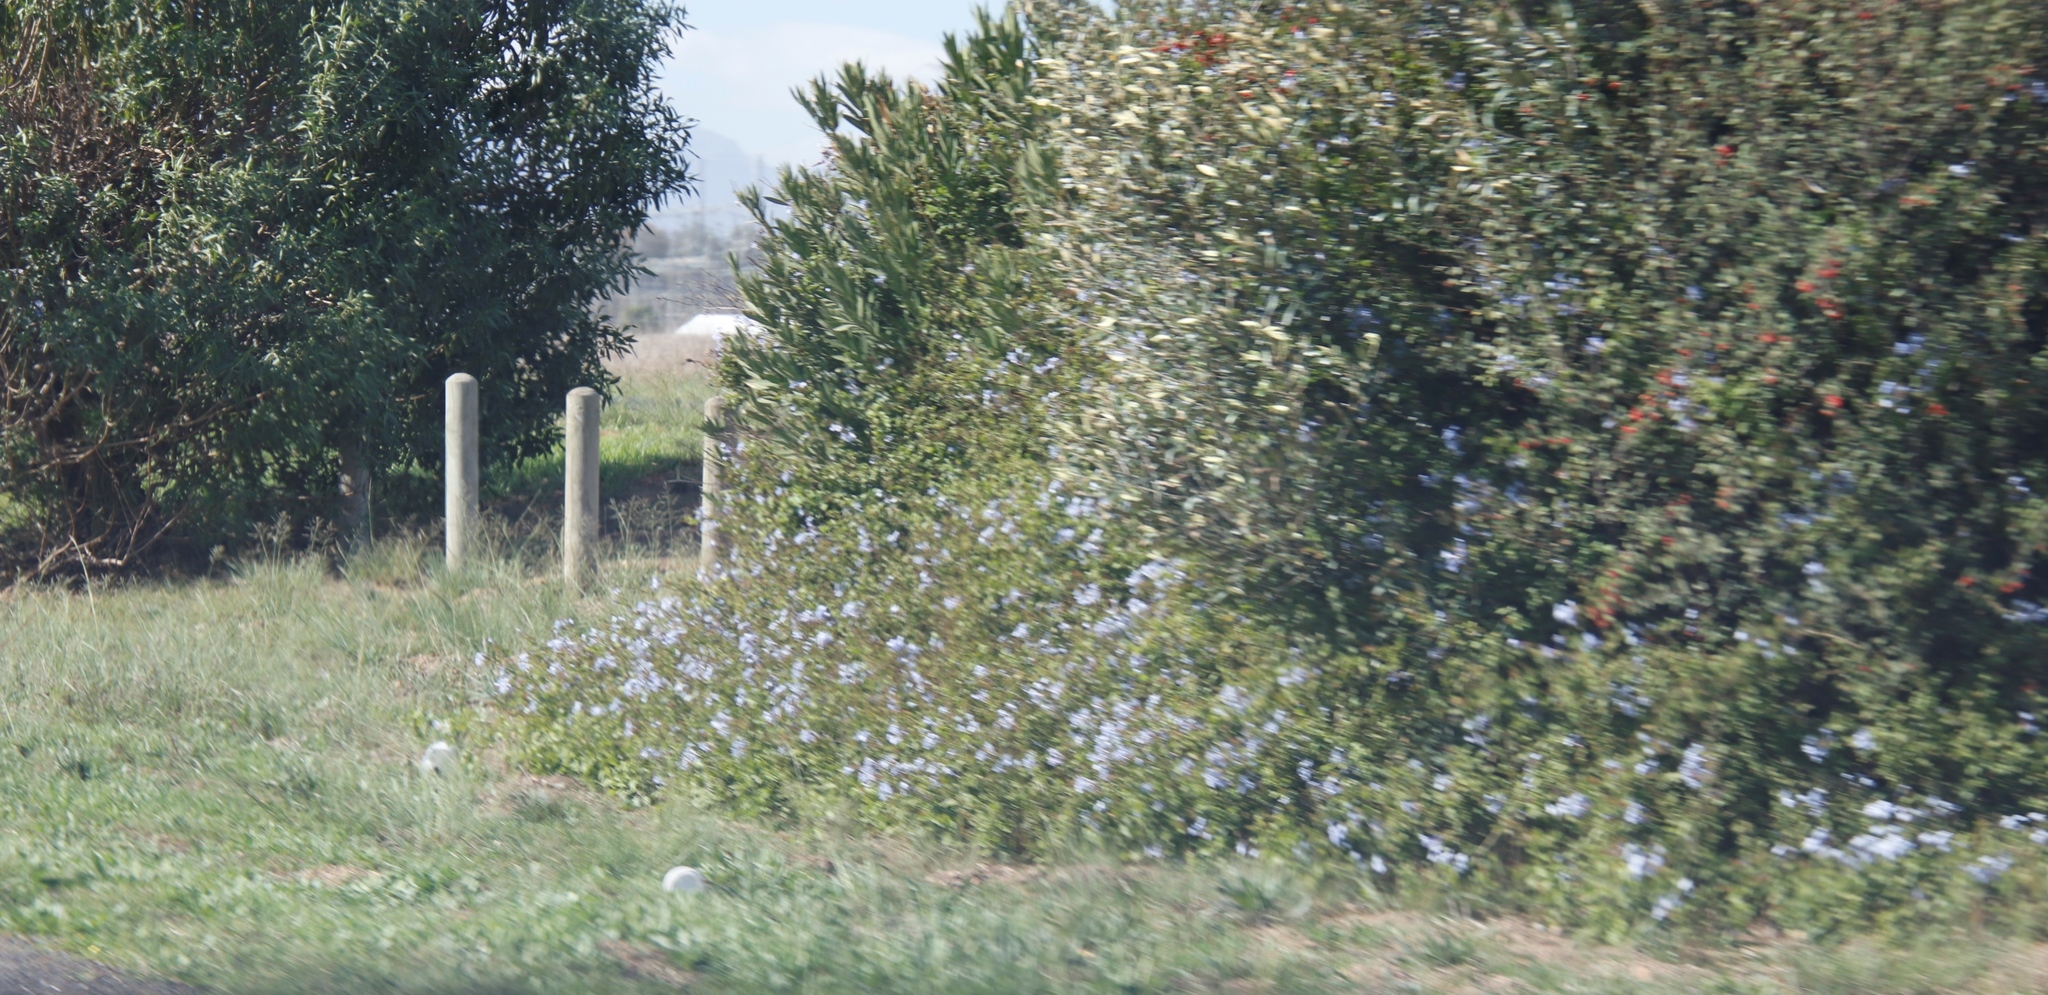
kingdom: Plantae
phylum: Tracheophyta
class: Magnoliopsida
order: Caryophyllales
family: Plumbaginaceae
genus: Plumbago
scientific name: Plumbago auriculata
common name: Cape leadwort
